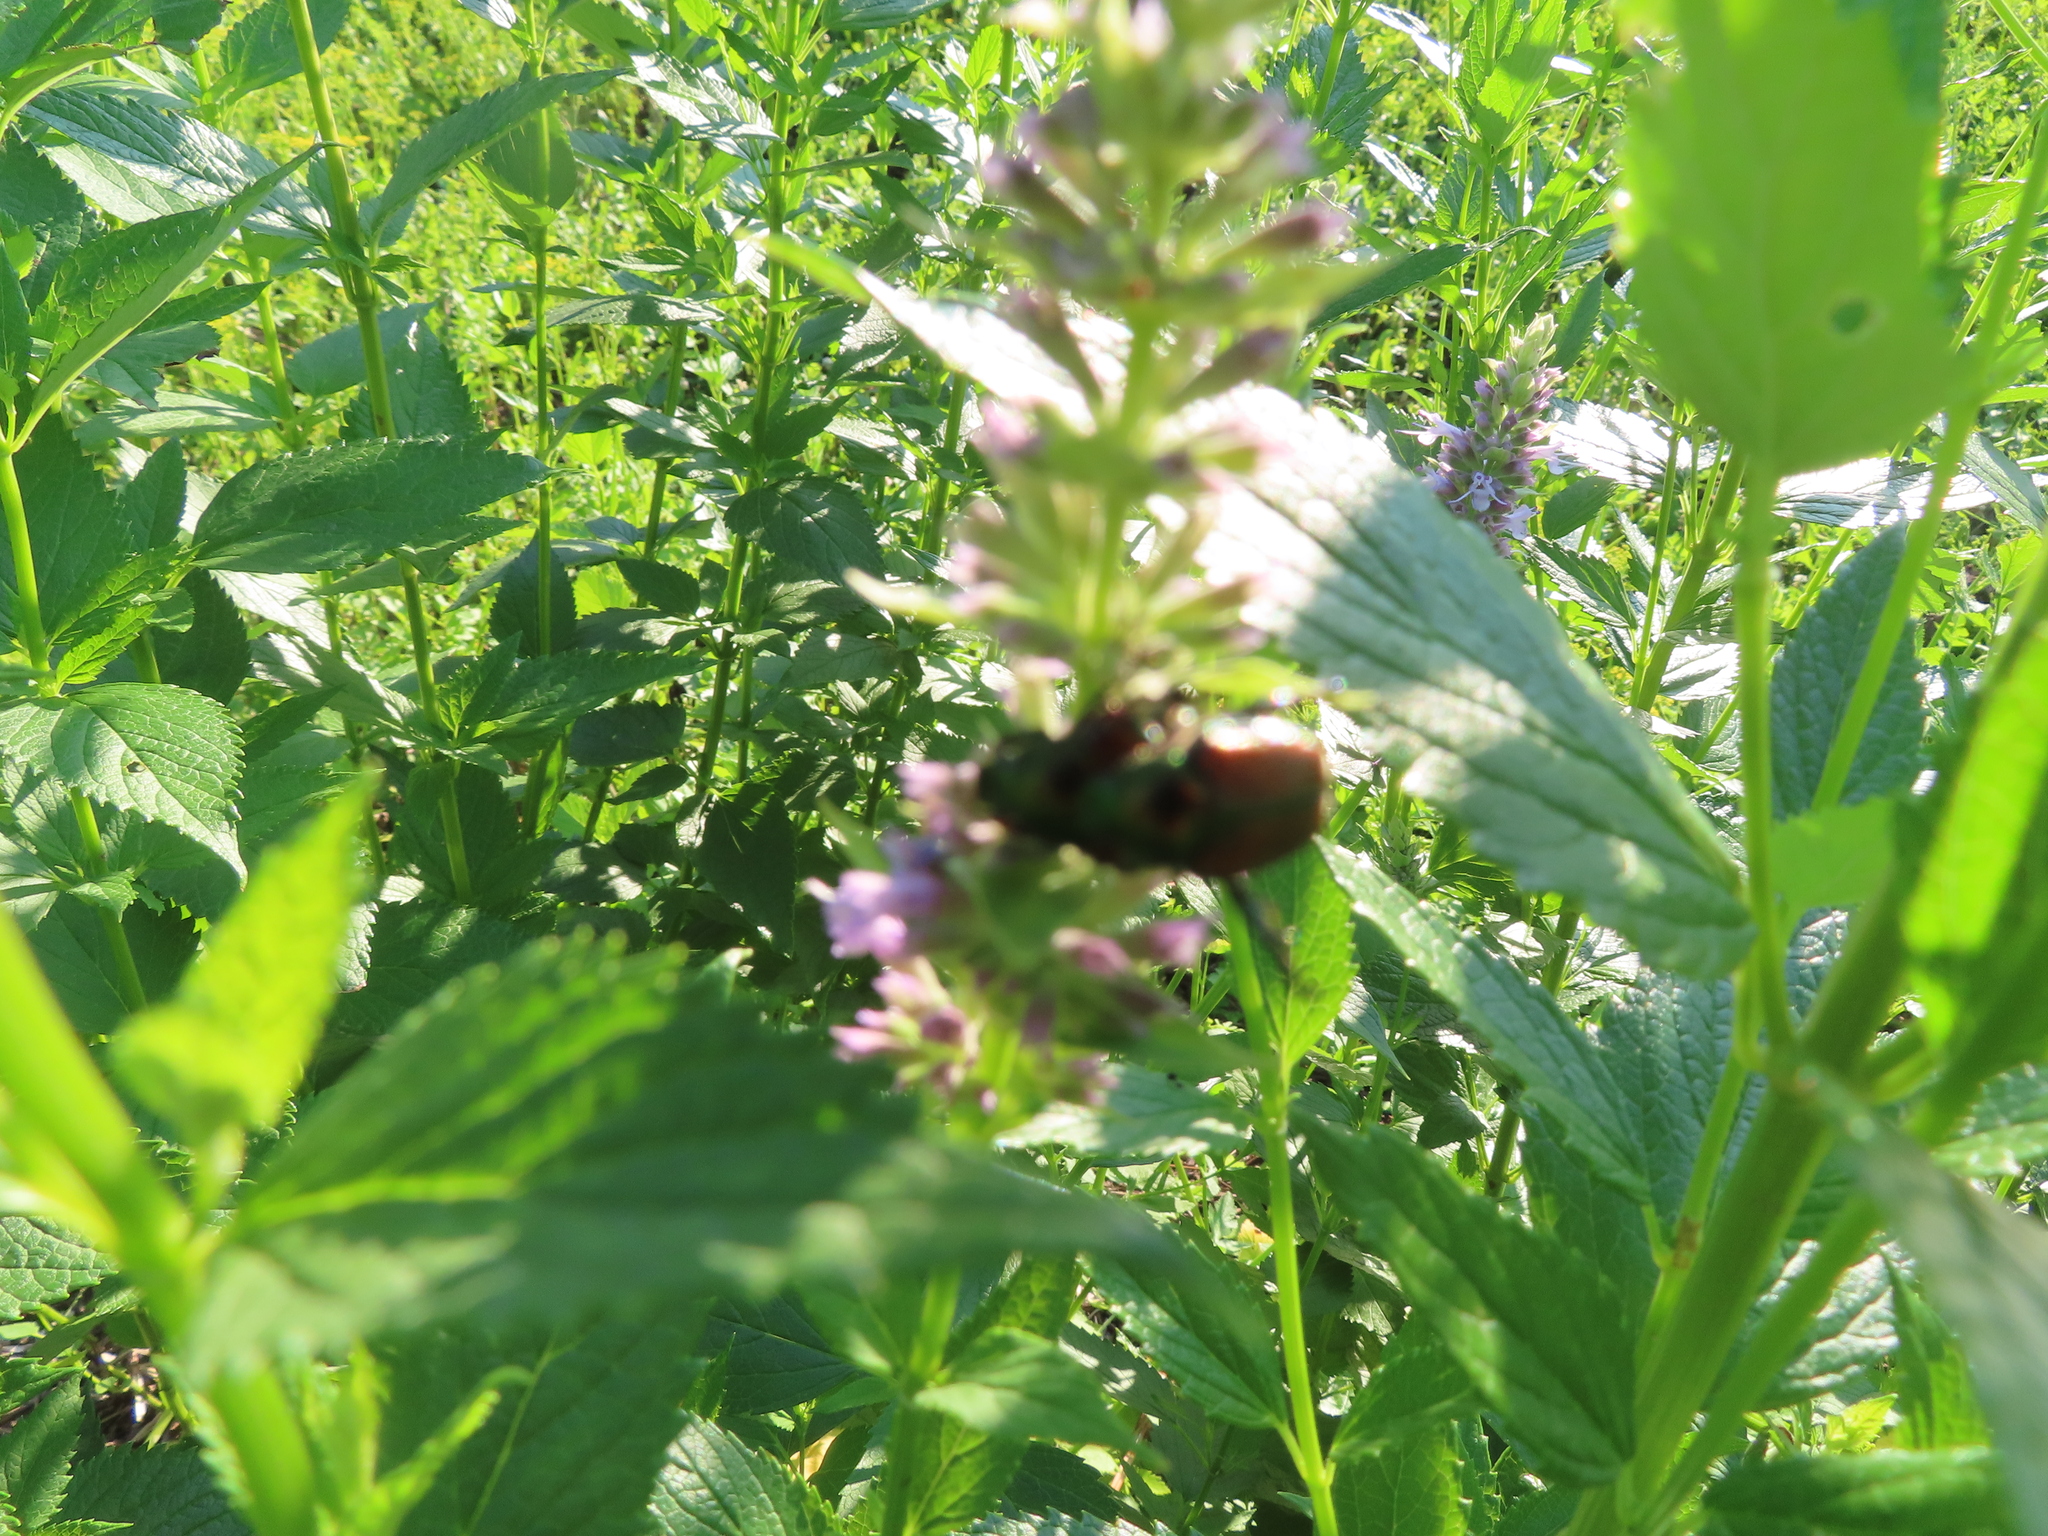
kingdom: Animalia
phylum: Arthropoda
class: Insecta
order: Coleoptera
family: Scarabaeidae
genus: Popillia
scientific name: Popillia japonica
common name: Japanese beetle
